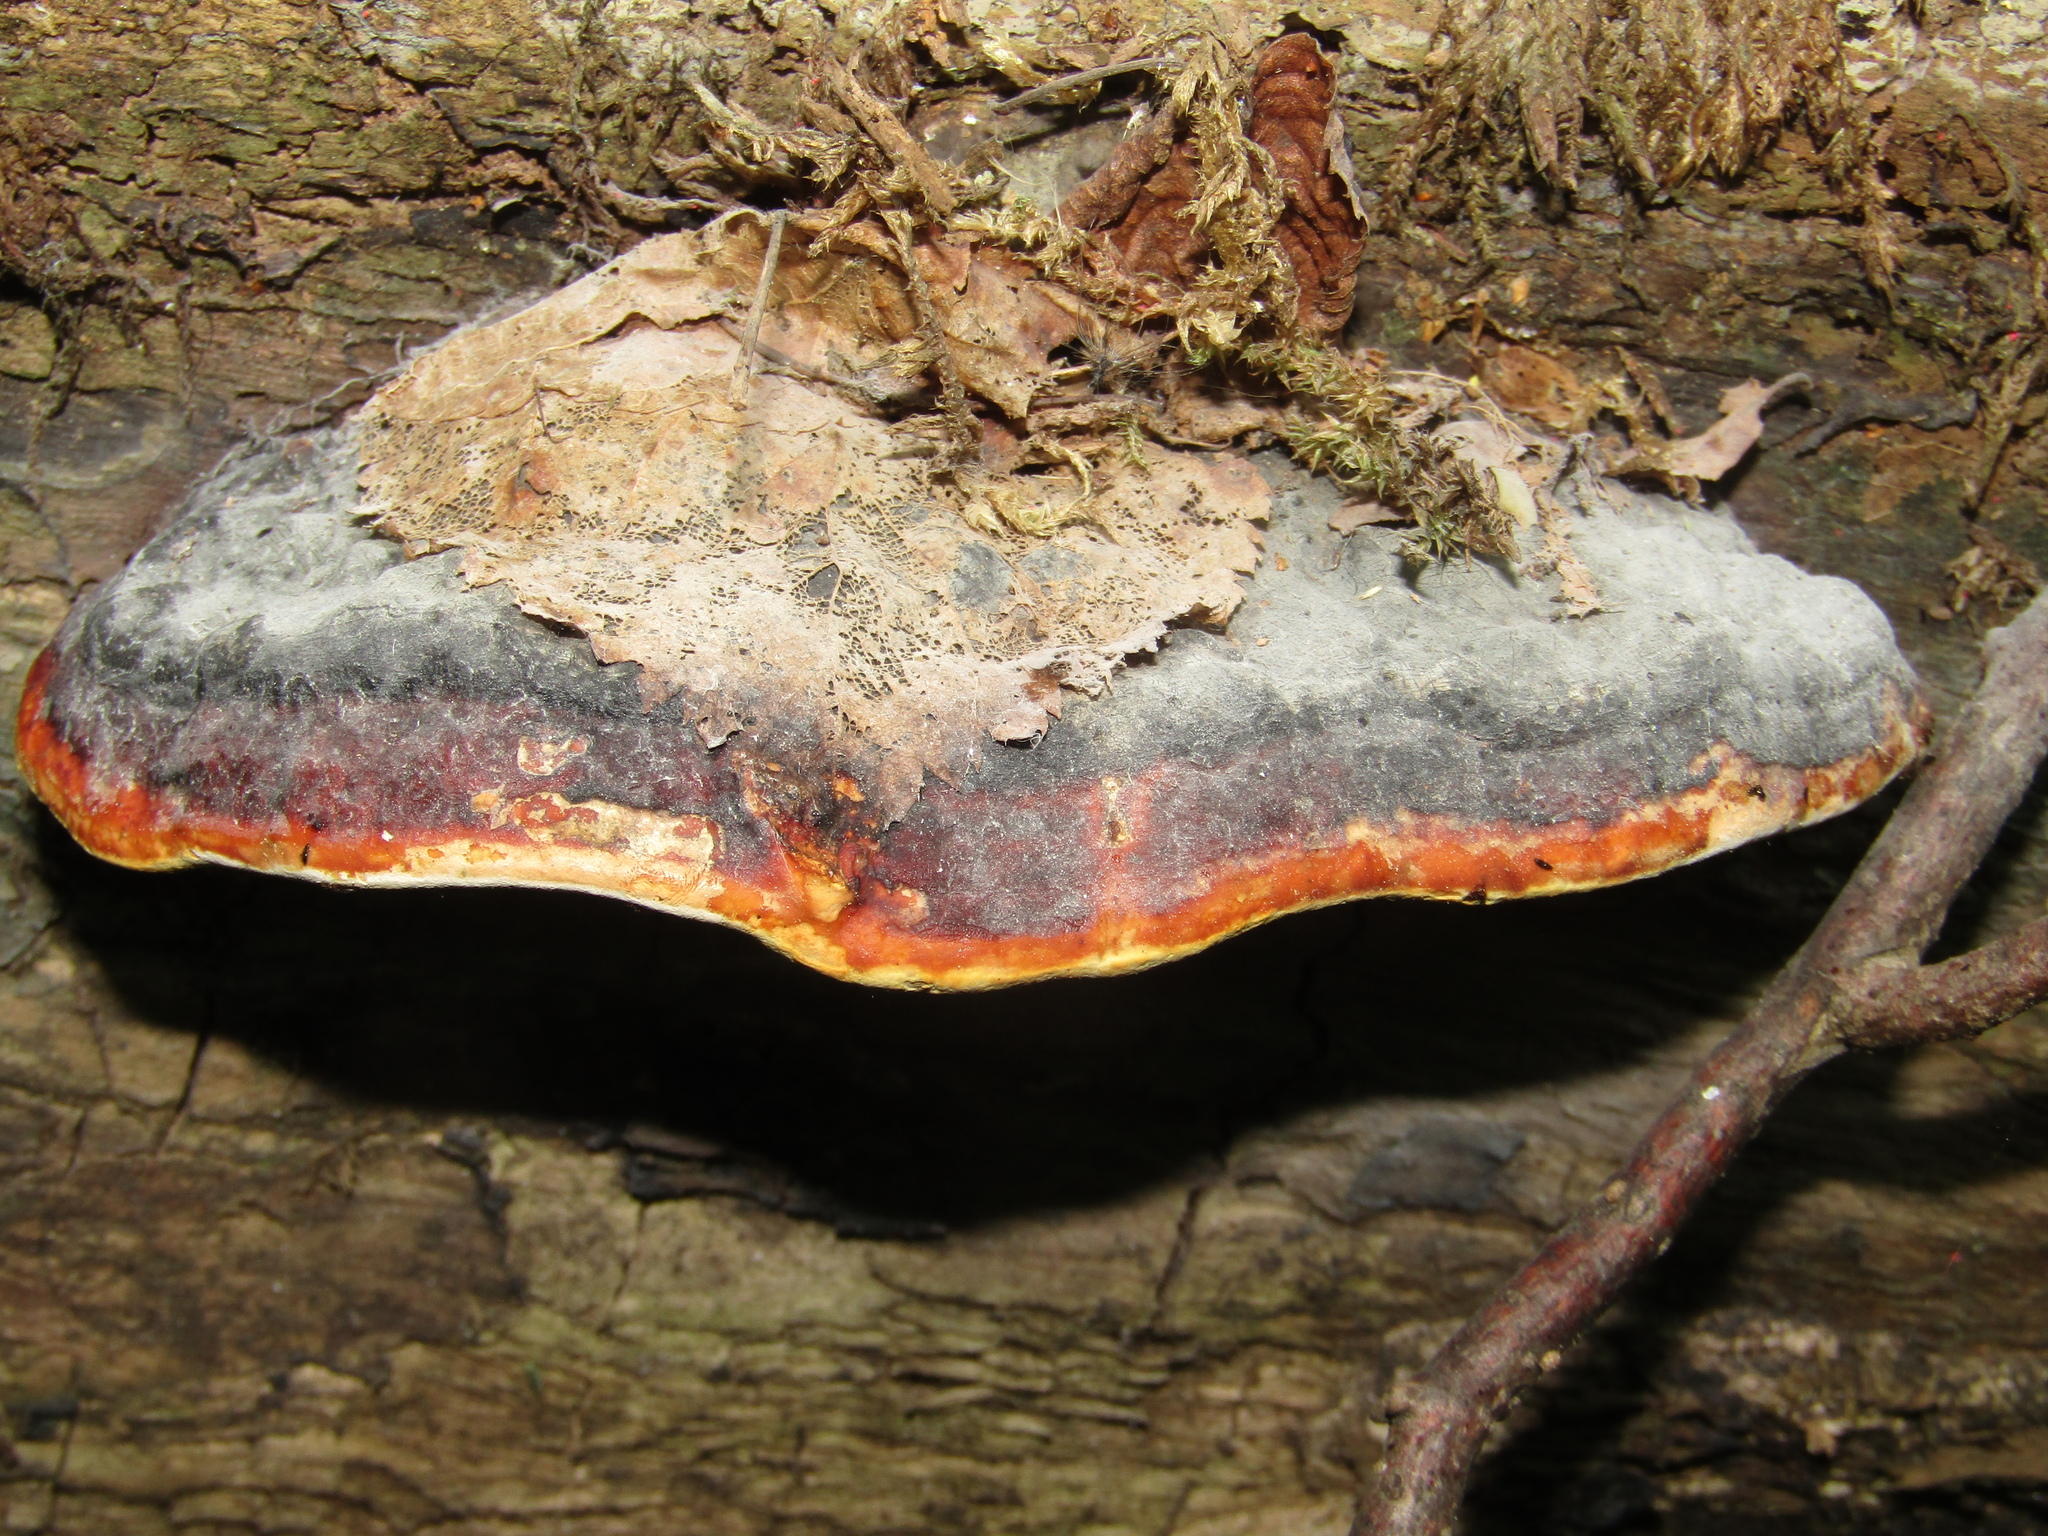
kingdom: Fungi
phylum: Basidiomycota
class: Agaricomycetes
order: Polyporales
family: Fomitopsidaceae
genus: Fomitopsis
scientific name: Fomitopsis pinicola
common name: Red-belted bracket
